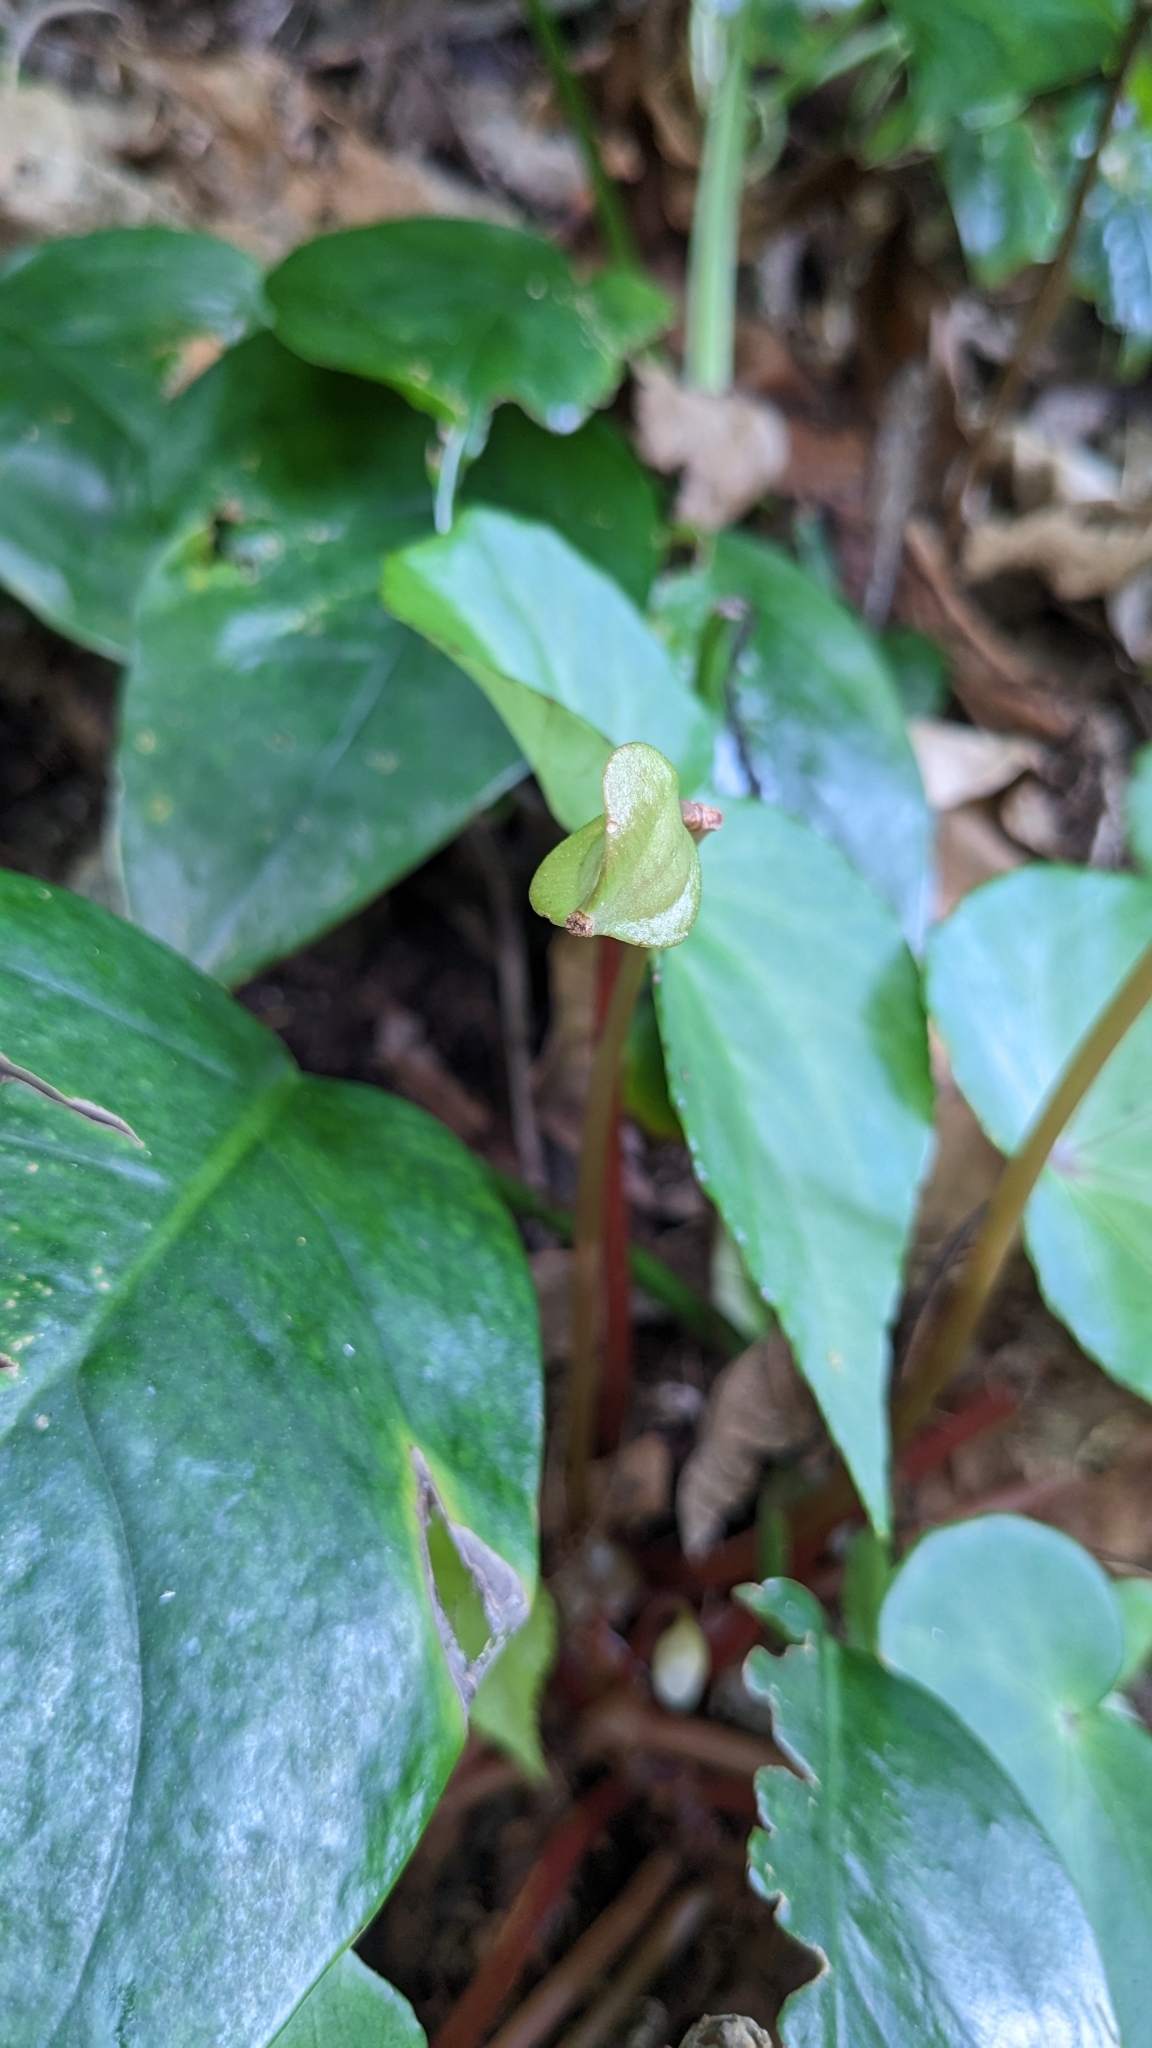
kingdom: Plantae
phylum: Tracheophyta
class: Magnoliopsida
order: Cucurbitales
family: Begoniaceae
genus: Begonia
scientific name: Begonia fenicis
